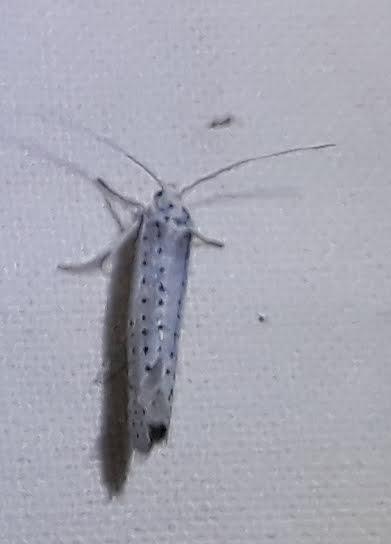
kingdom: Animalia
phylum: Arthropoda
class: Insecta
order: Lepidoptera
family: Yponomeutidae
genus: Yponomeuta
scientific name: Yponomeuta evonymella
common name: Bird-cherry ermine
